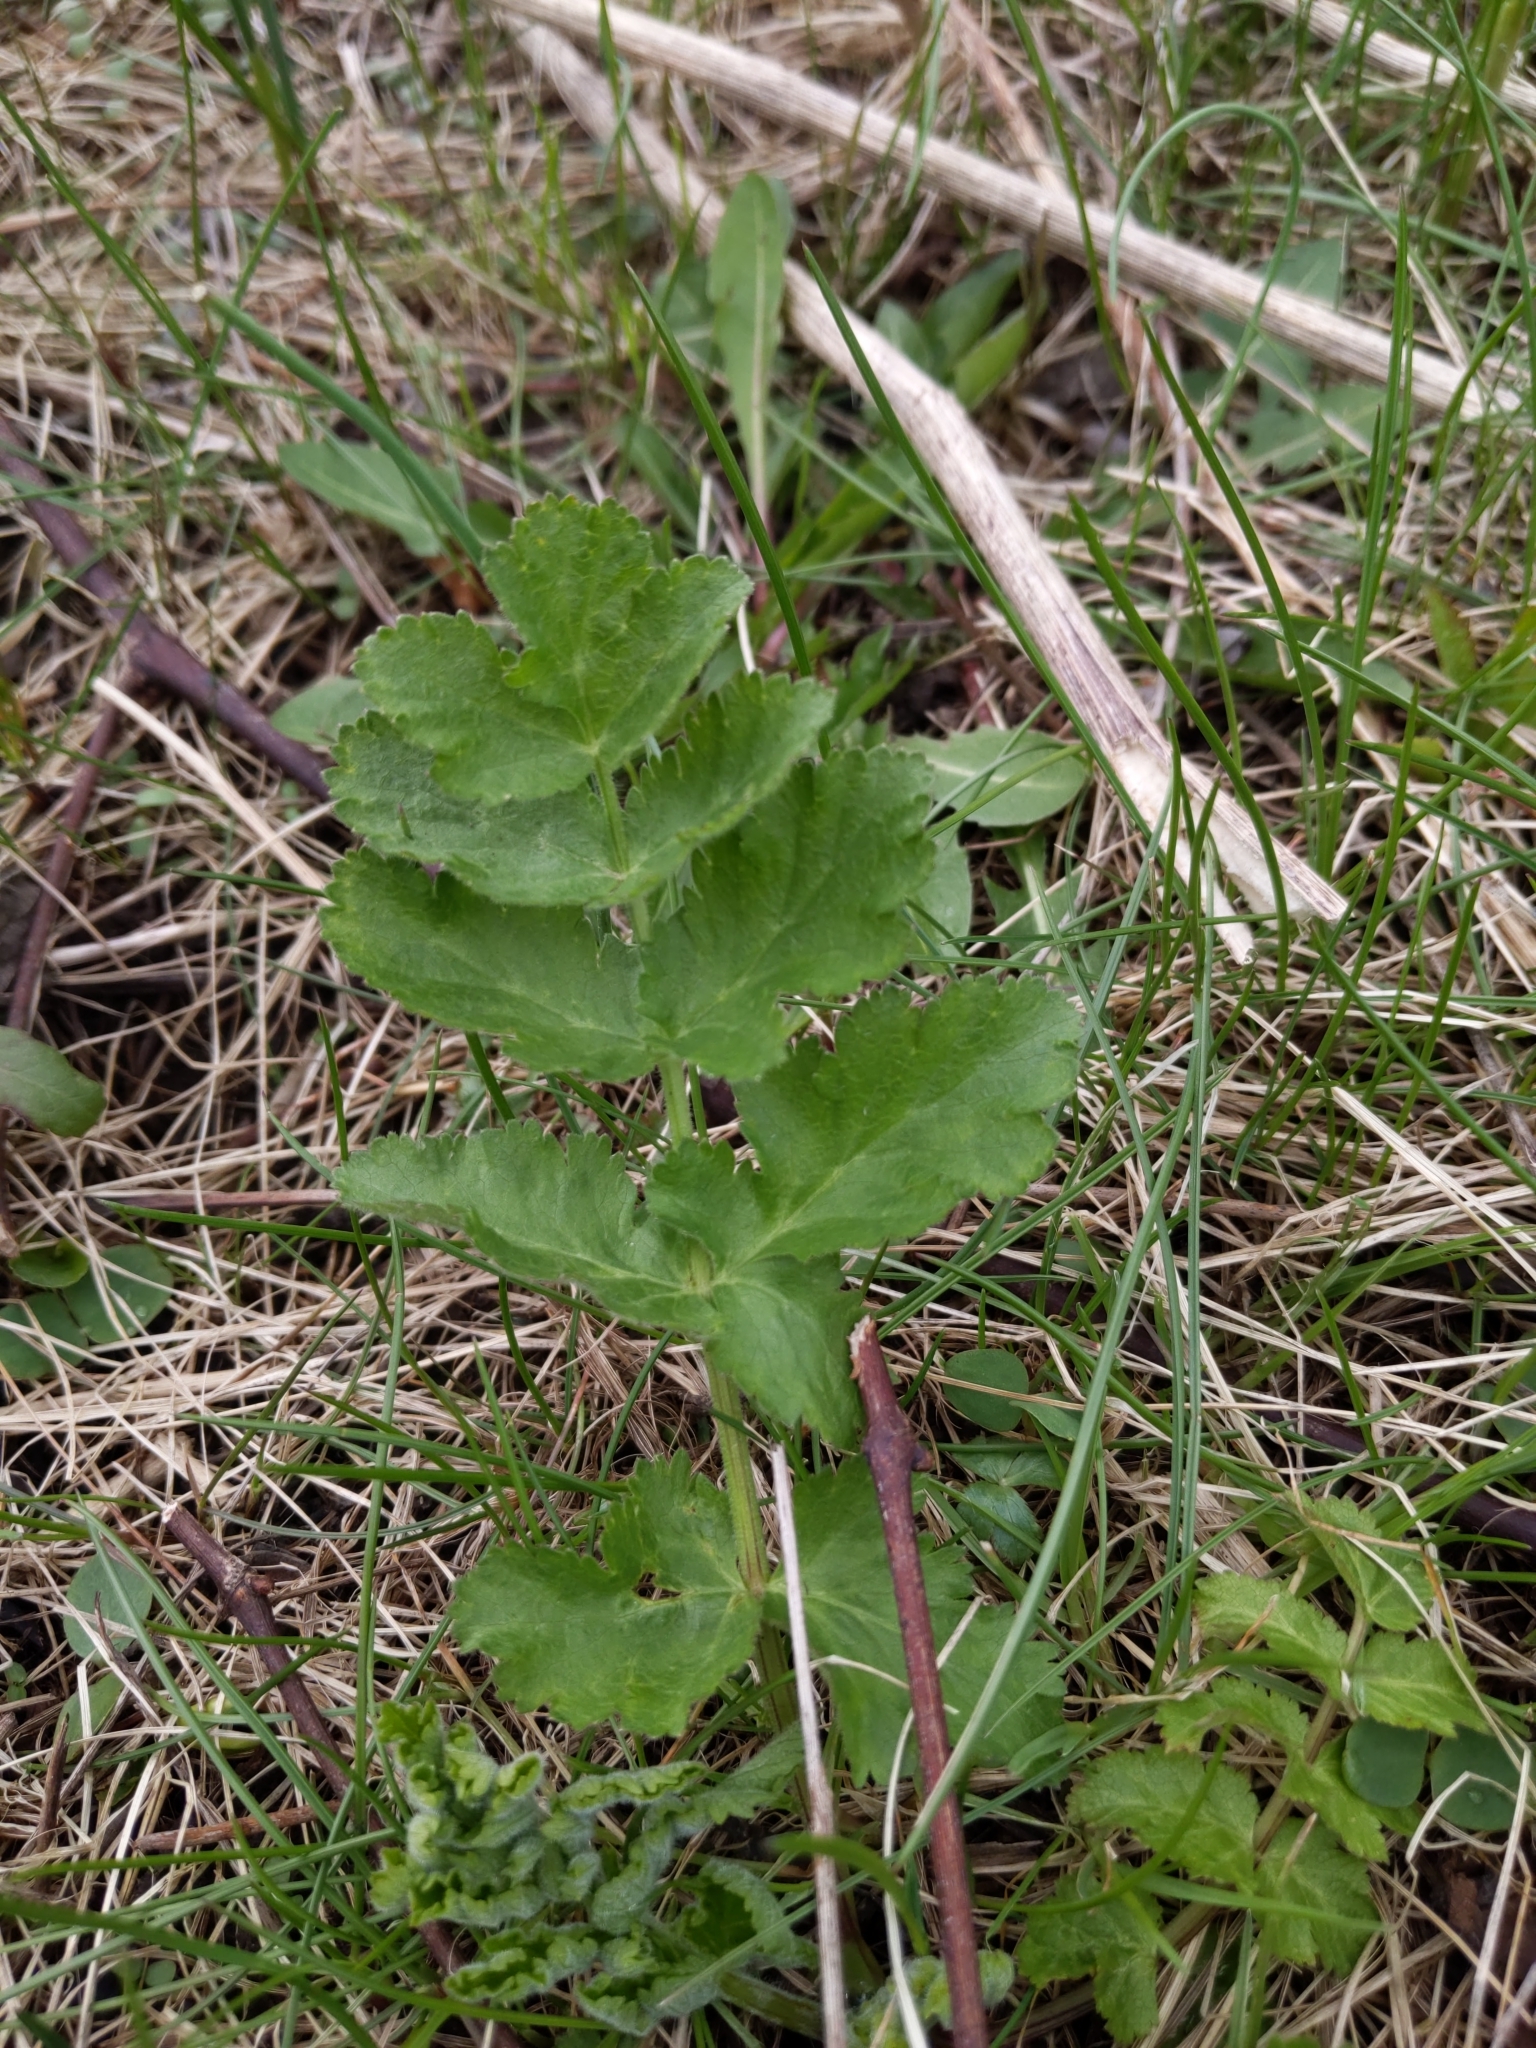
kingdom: Plantae
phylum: Tracheophyta
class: Magnoliopsida
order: Apiales
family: Apiaceae
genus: Pastinaca
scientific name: Pastinaca sativa
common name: Wild parsnip
